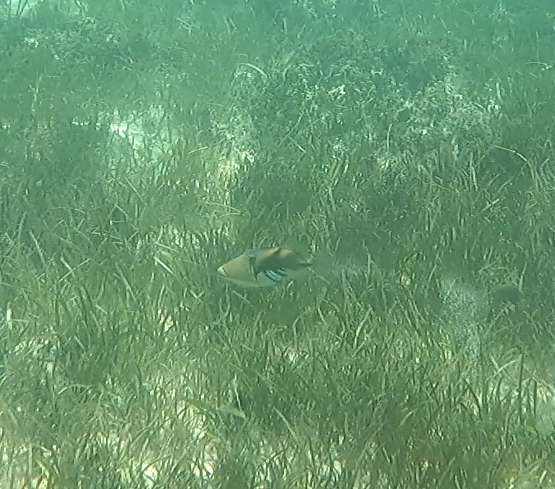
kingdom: Animalia
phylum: Chordata
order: Tetraodontiformes
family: Balistidae
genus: Rhinecanthus
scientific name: Rhinecanthus aculeatus
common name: White-banded triggerfish
